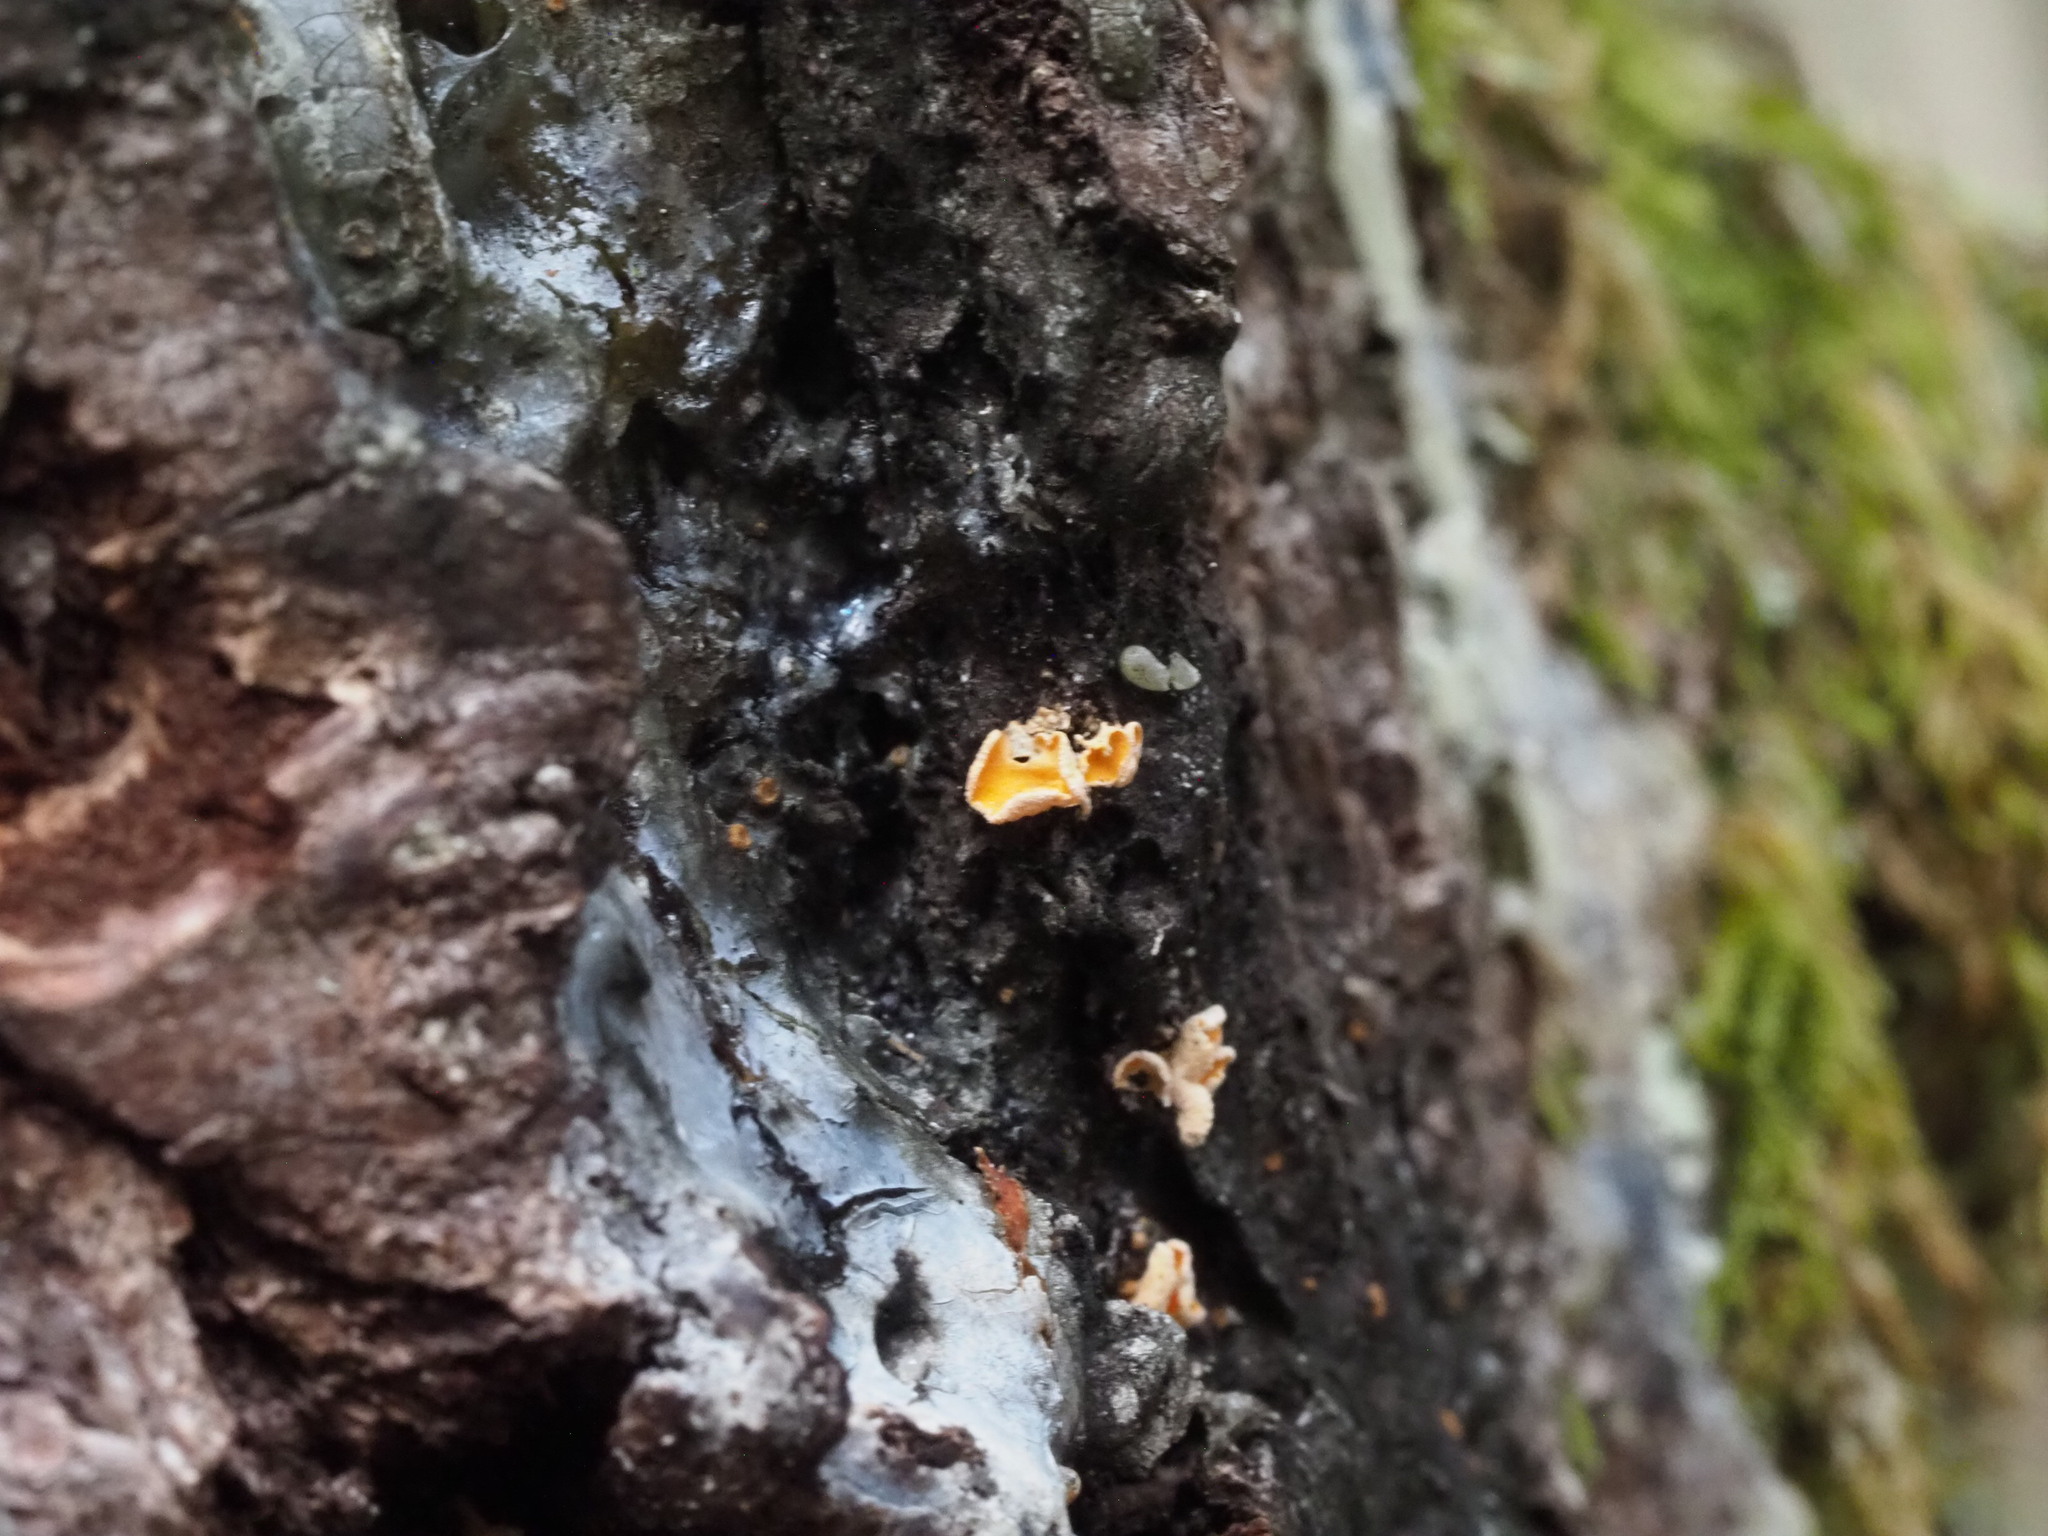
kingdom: Fungi
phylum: Ascomycota
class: Leotiomycetes
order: Helotiales
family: Lachnaceae
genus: Lachnellula
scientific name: Lachnellula resinaria
